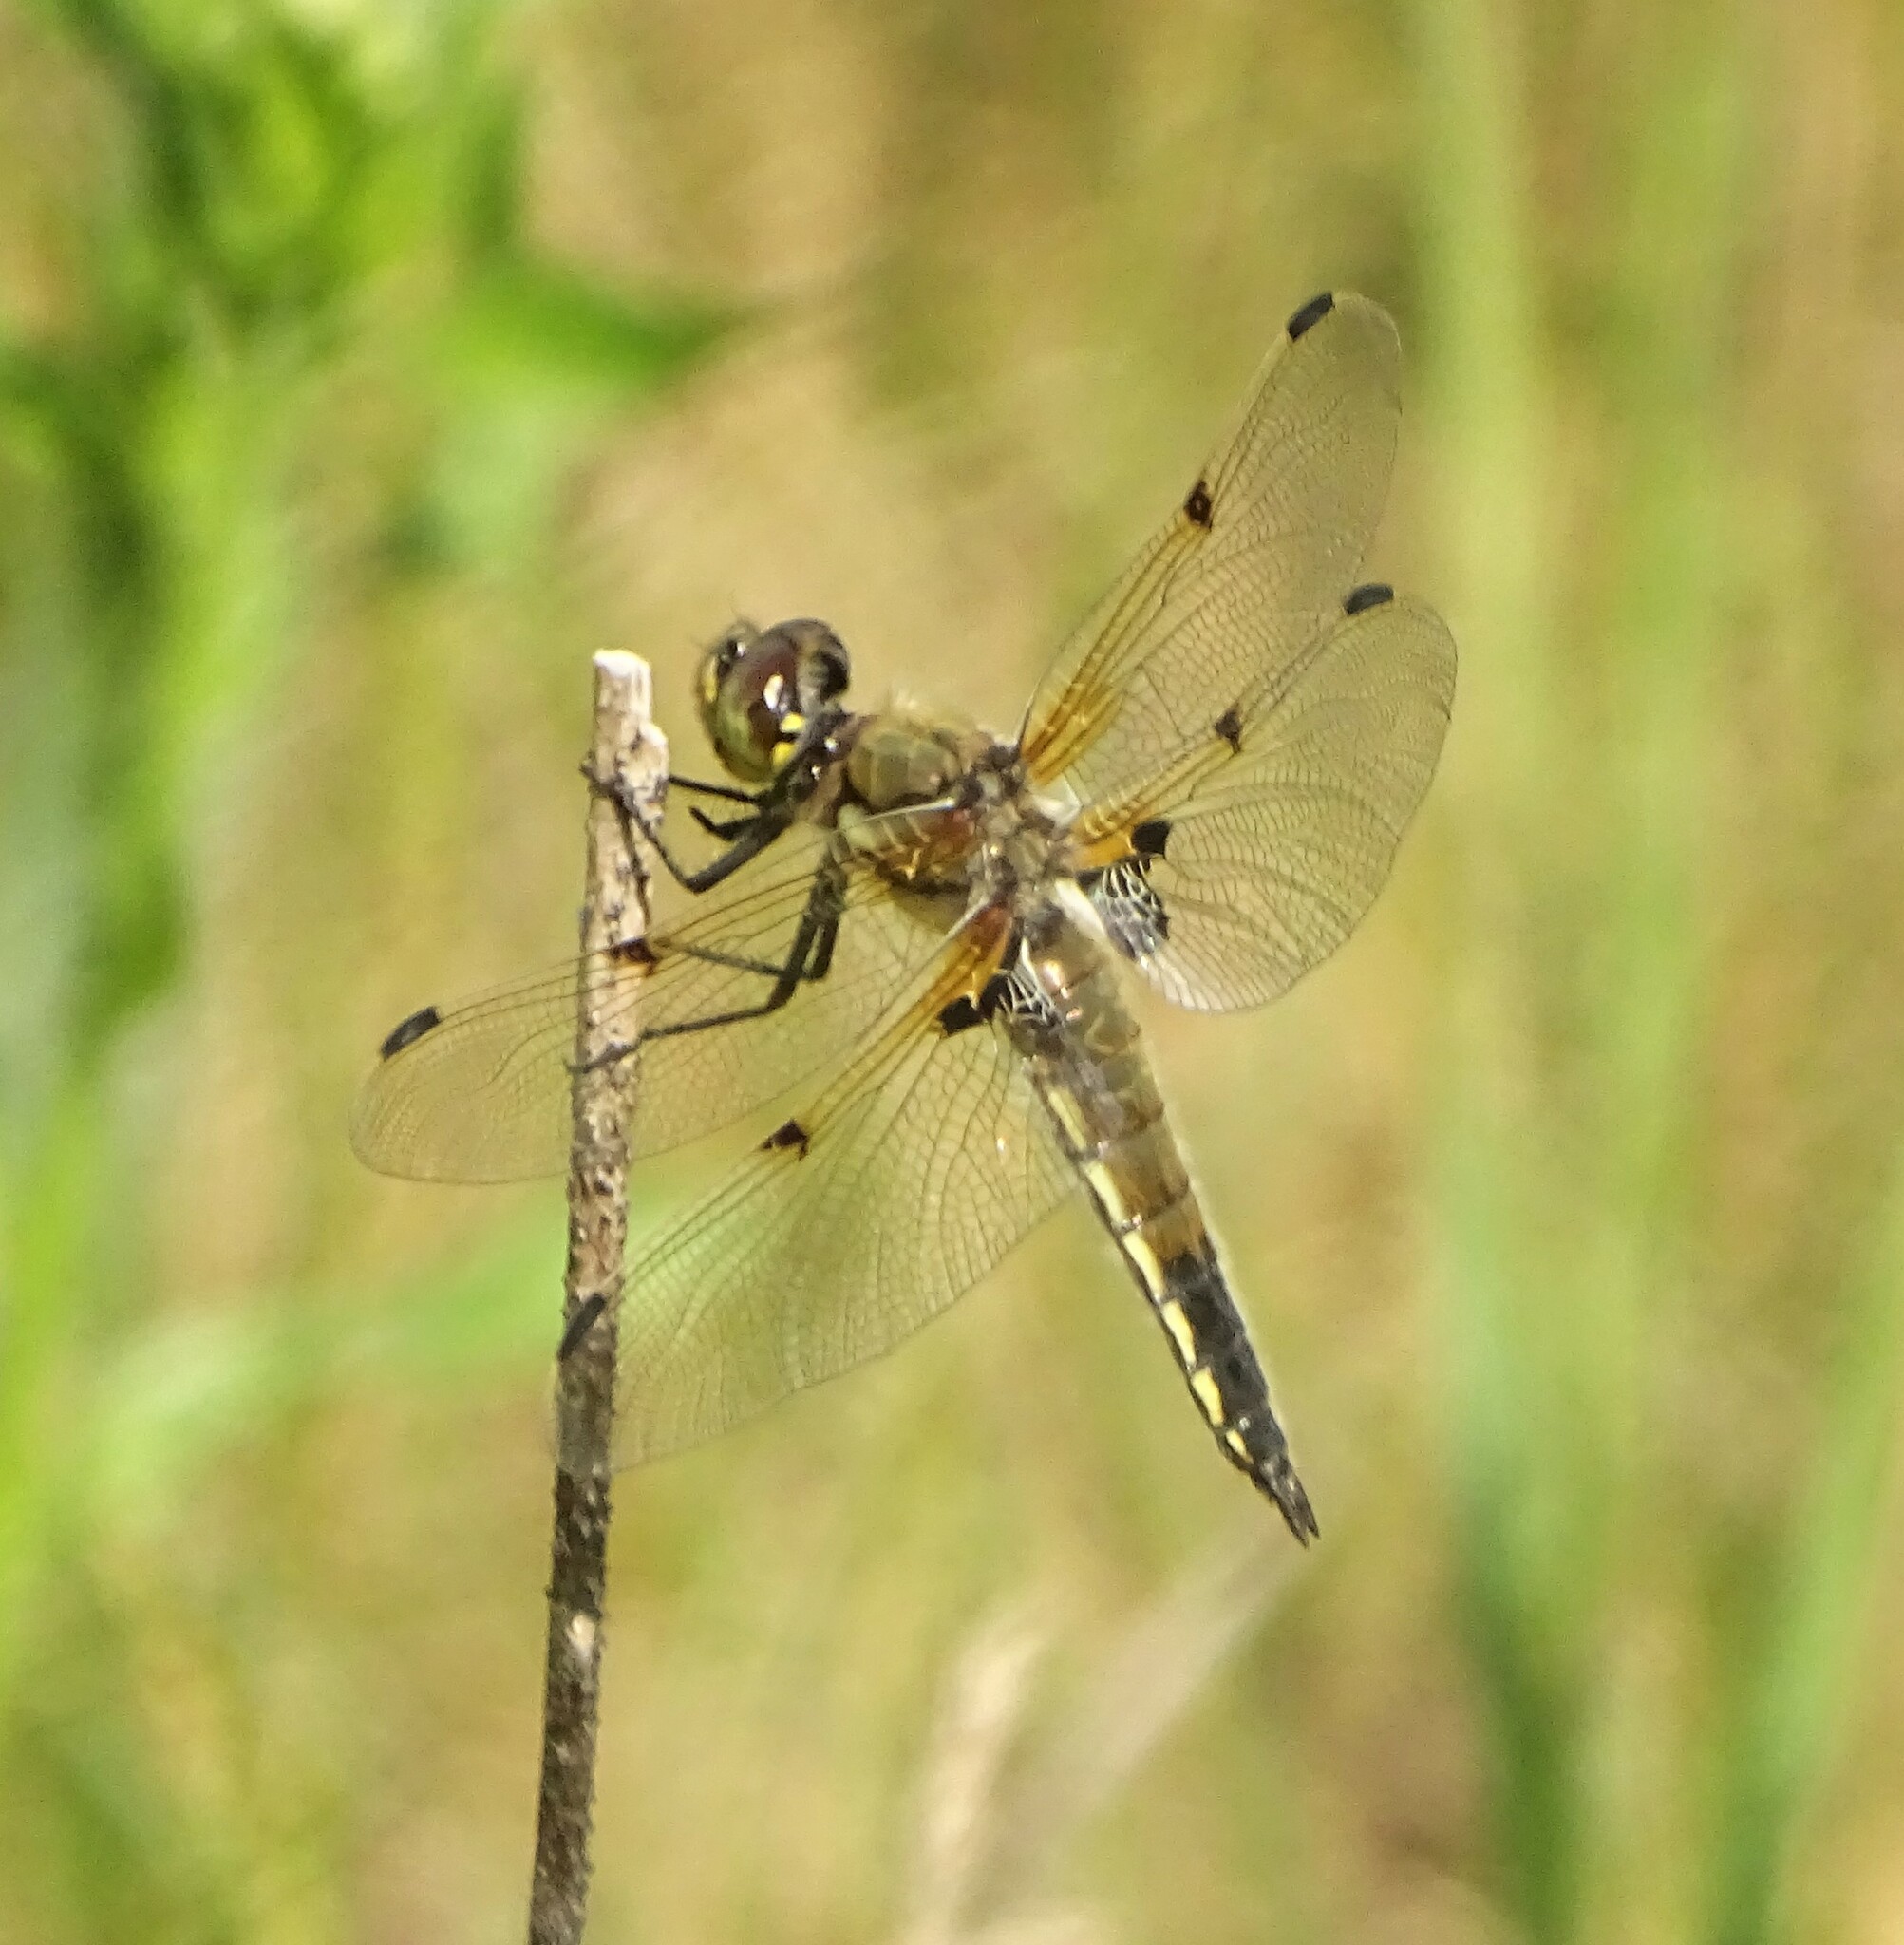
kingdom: Animalia
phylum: Arthropoda
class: Insecta
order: Odonata
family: Libellulidae
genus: Libellula
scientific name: Libellula quadrimaculata
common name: Four-spotted chaser
